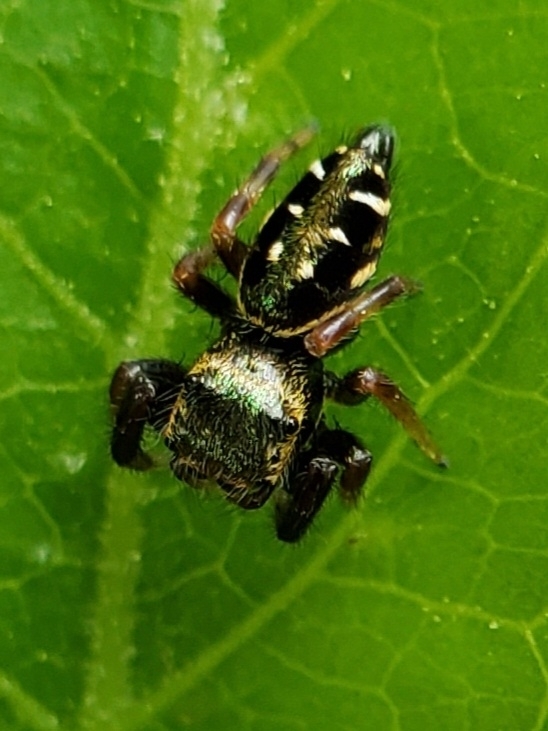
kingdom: Animalia
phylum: Arthropoda
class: Arachnida
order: Araneae
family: Salticidae
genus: Paraphidippus
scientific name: Paraphidippus aurantius
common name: Jumping spiders
